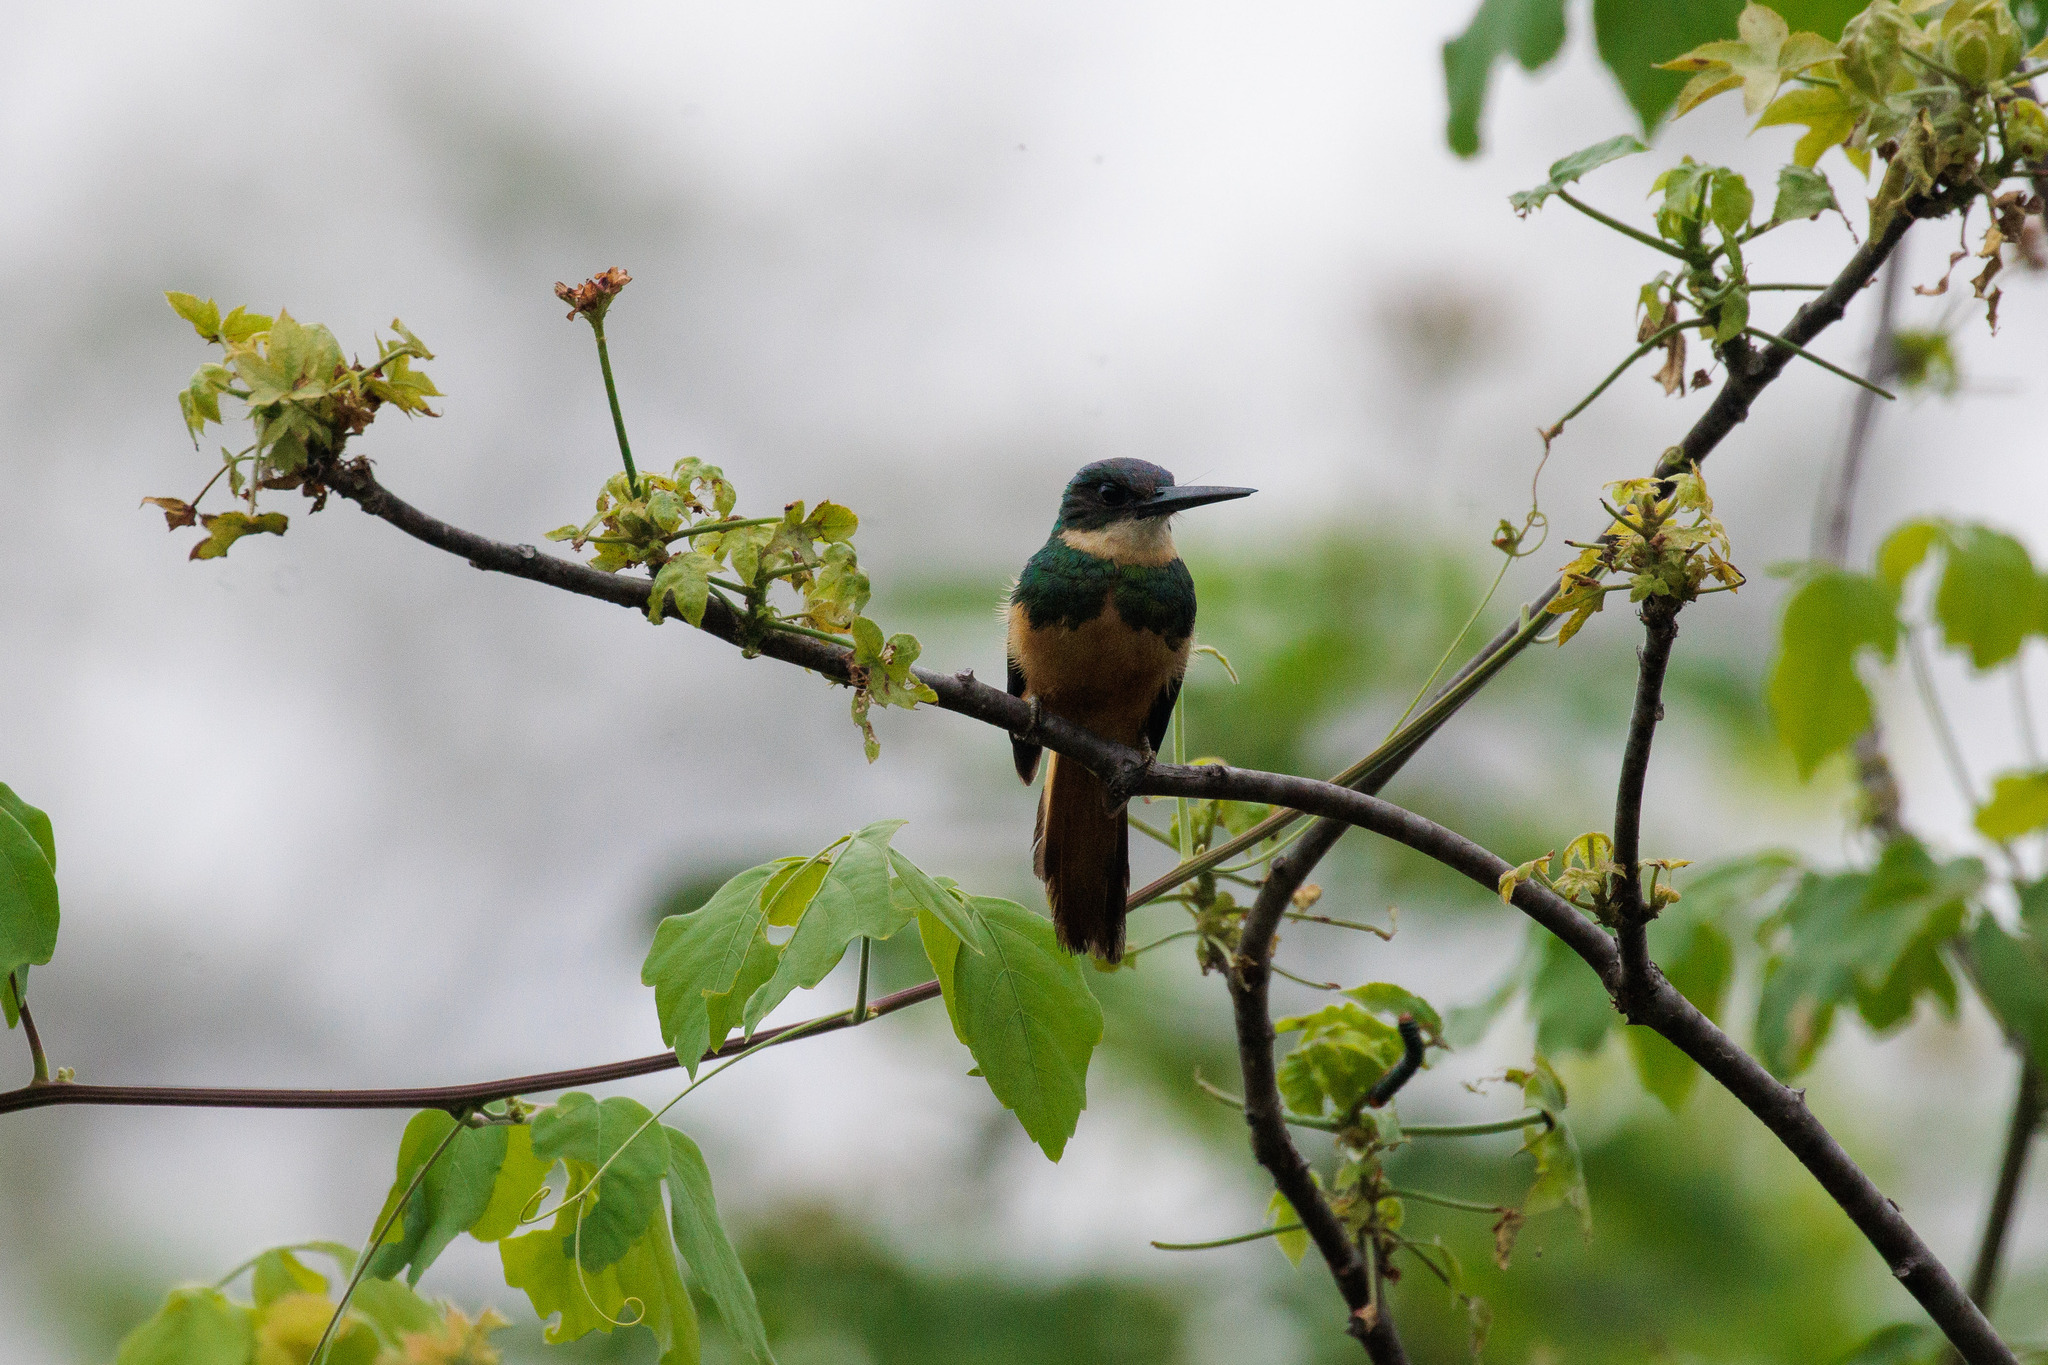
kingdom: Animalia
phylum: Chordata
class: Aves
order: Piciformes
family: Galbulidae
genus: Galbula
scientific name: Galbula ruficauda
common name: Rufous-tailed jacamar
